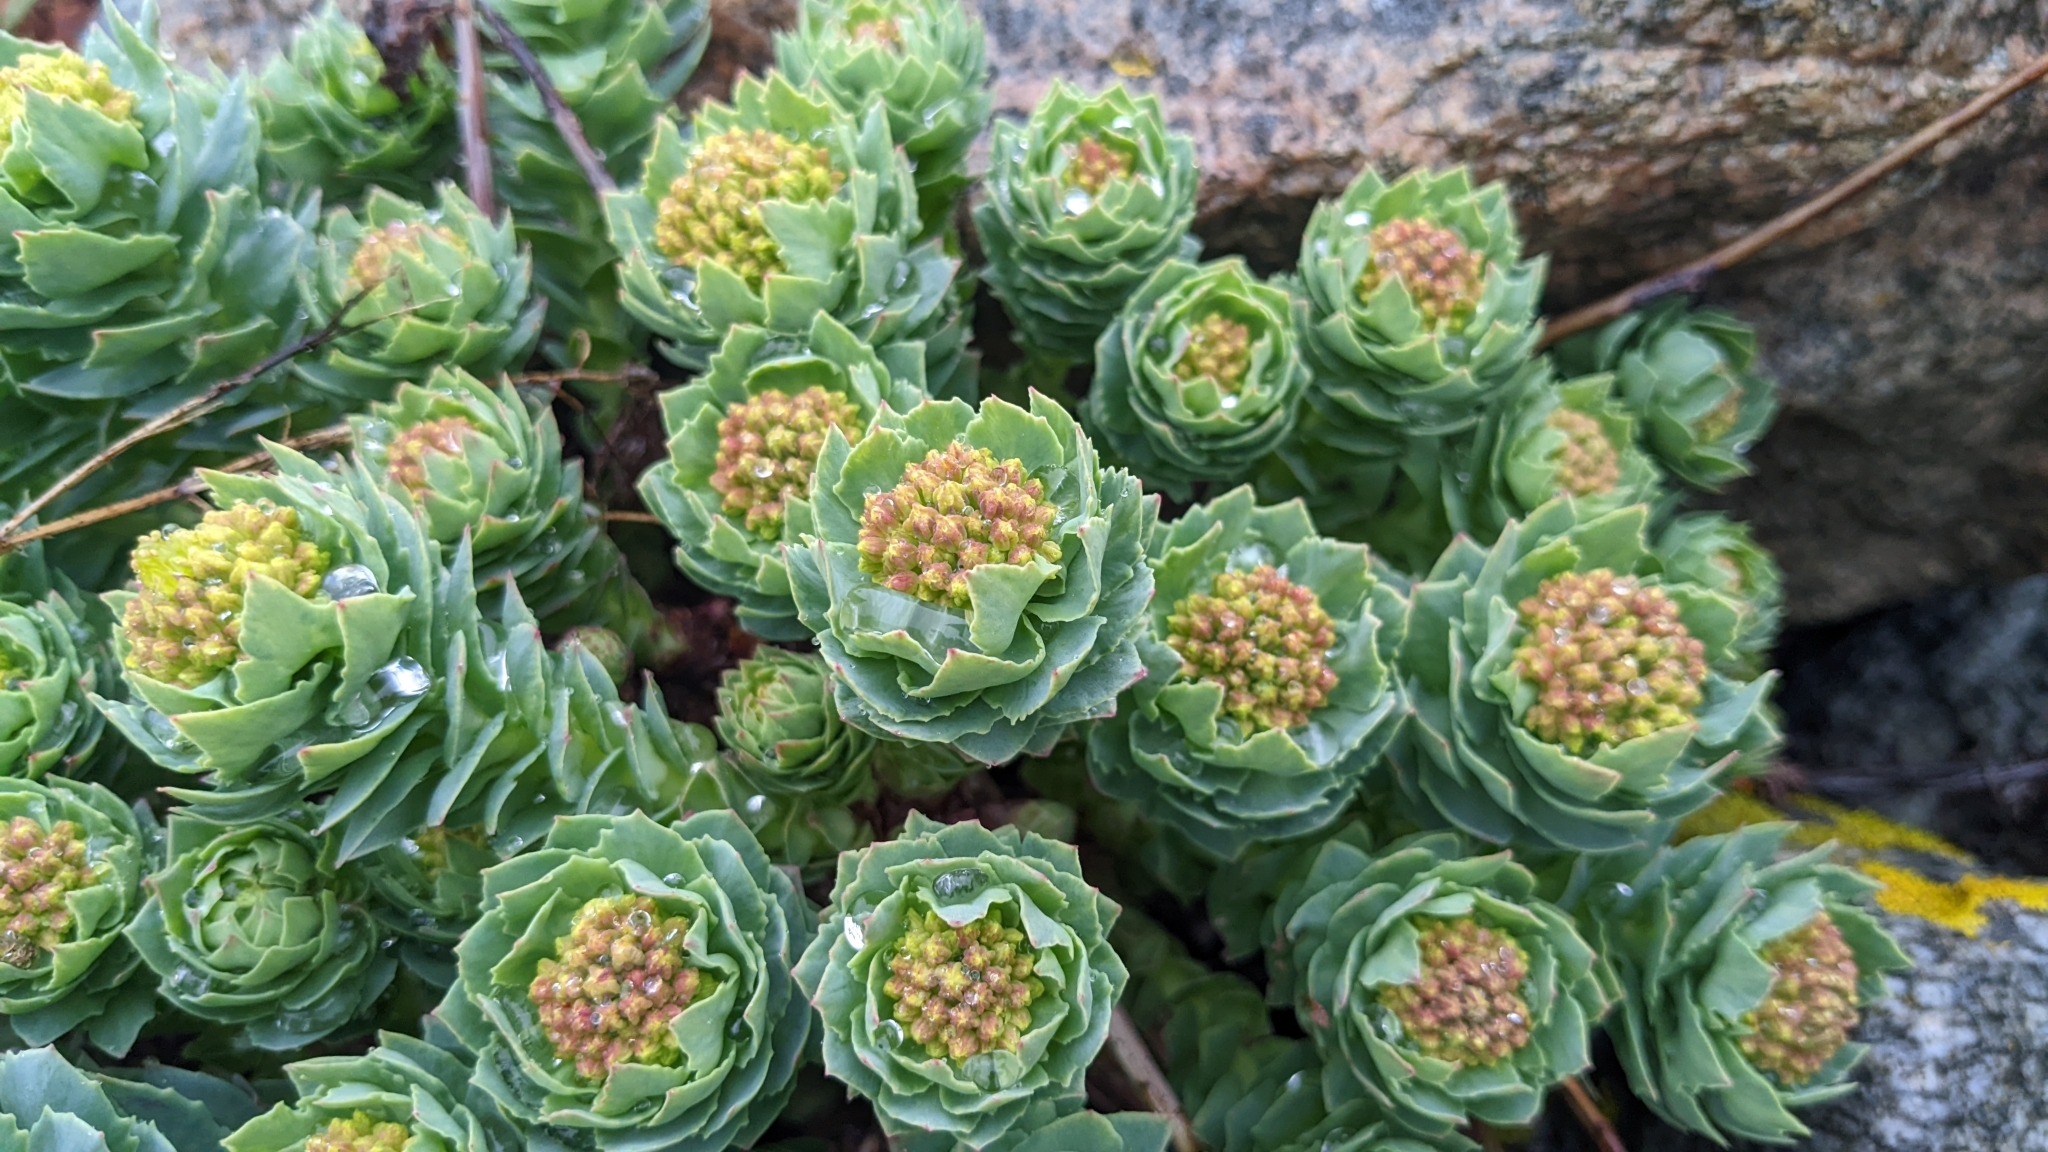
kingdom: Plantae
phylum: Tracheophyta
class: Magnoliopsida
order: Saxifragales
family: Crassulaceae
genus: Rhodiola
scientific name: Rhodiola rosea
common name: Roseroot
